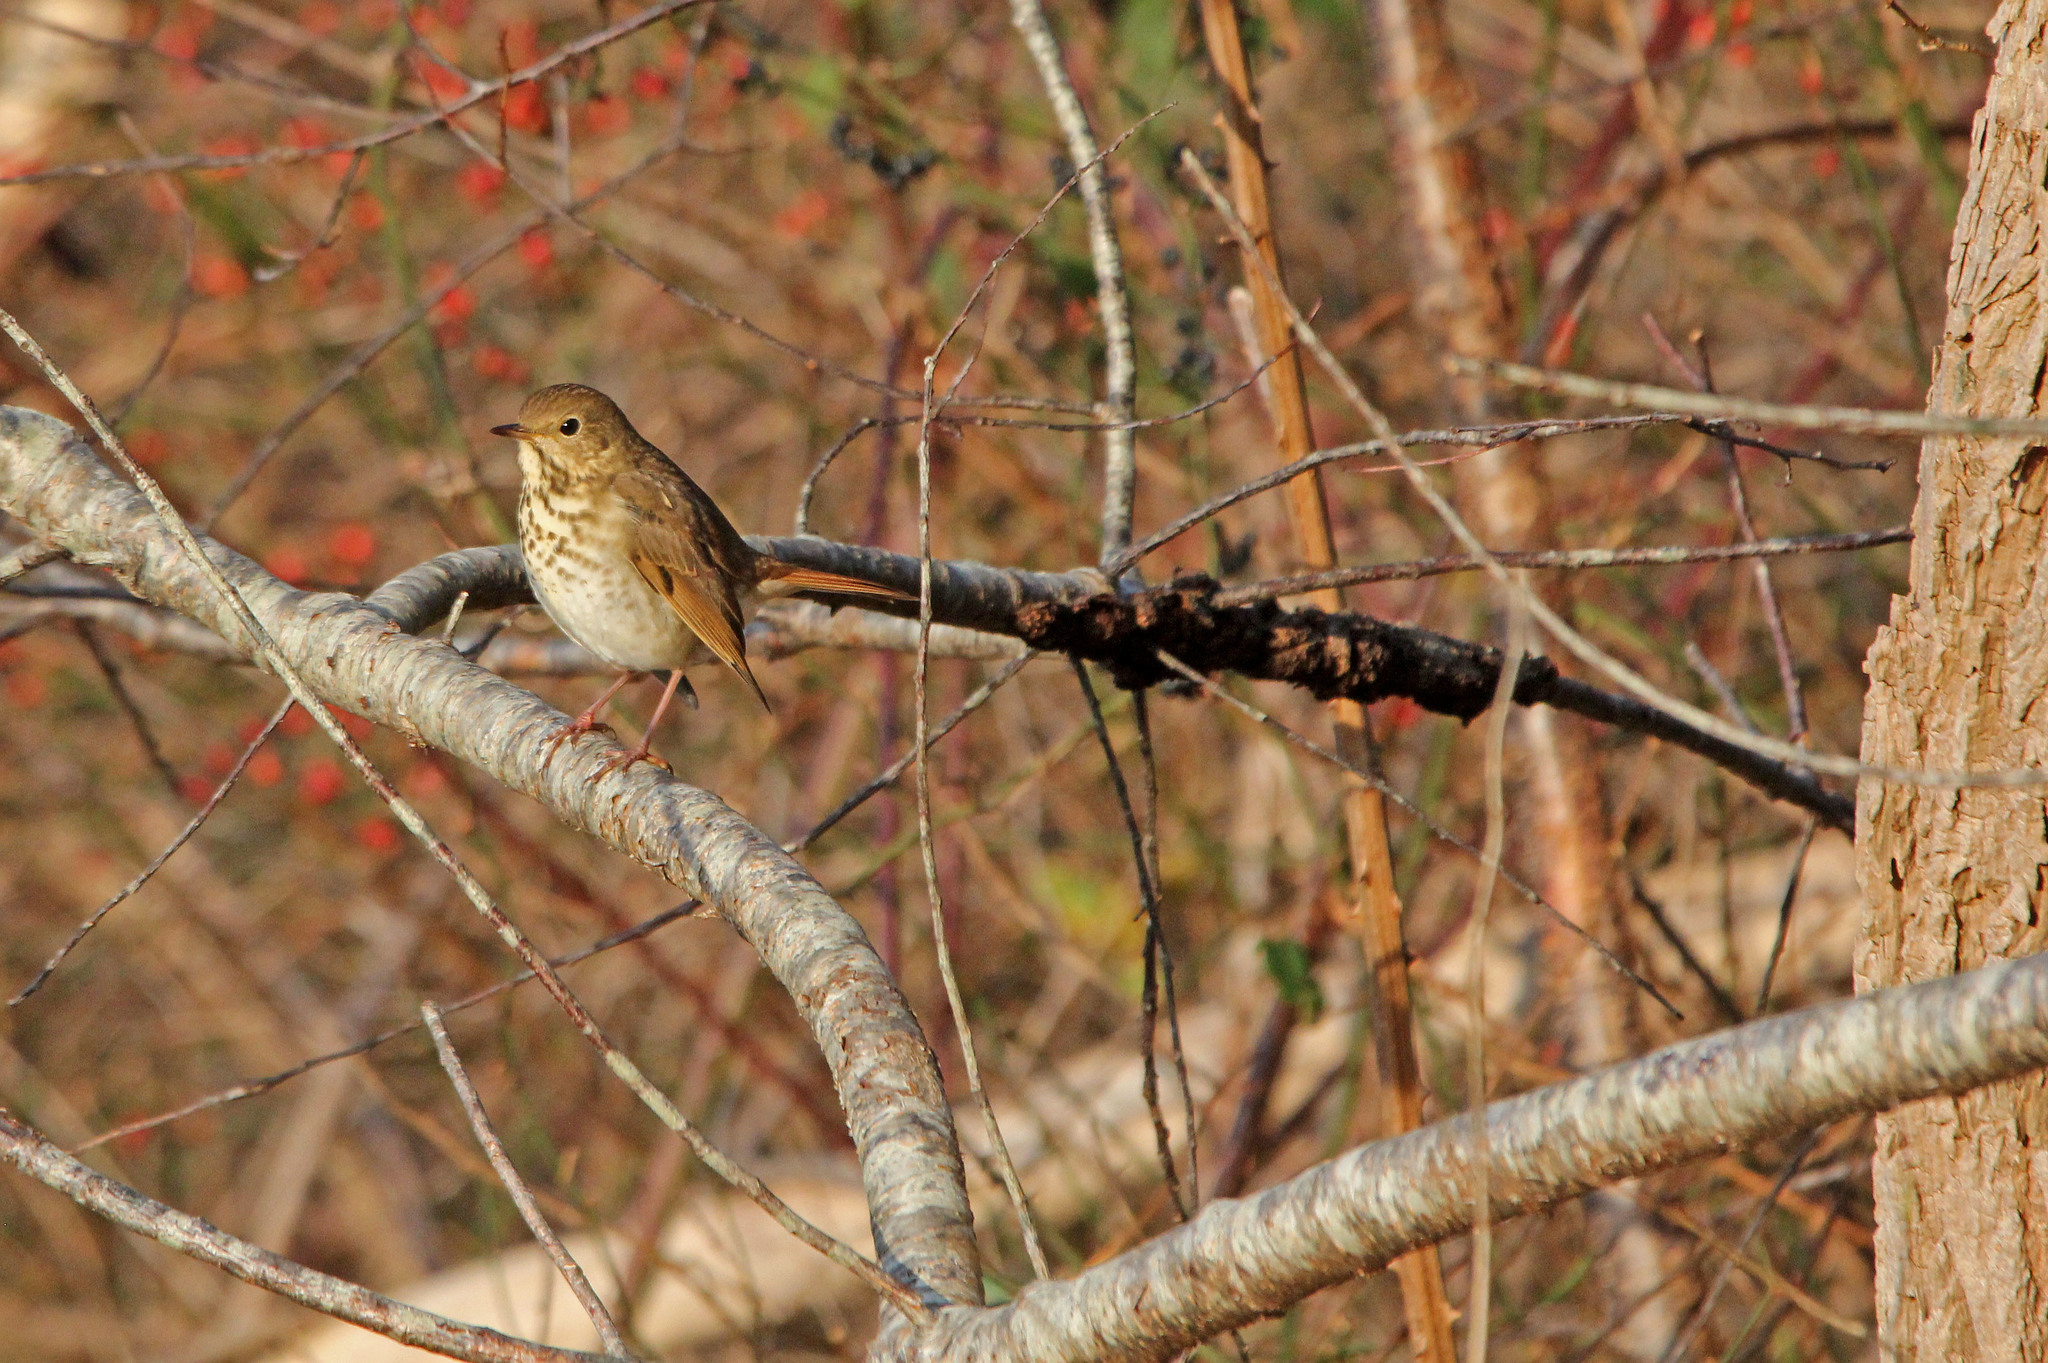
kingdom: Animalia
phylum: Chordata
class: Aves
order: Passeriformes
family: Turdidae
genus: Catharus
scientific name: Catharus guttatus
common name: Hermit thrush
